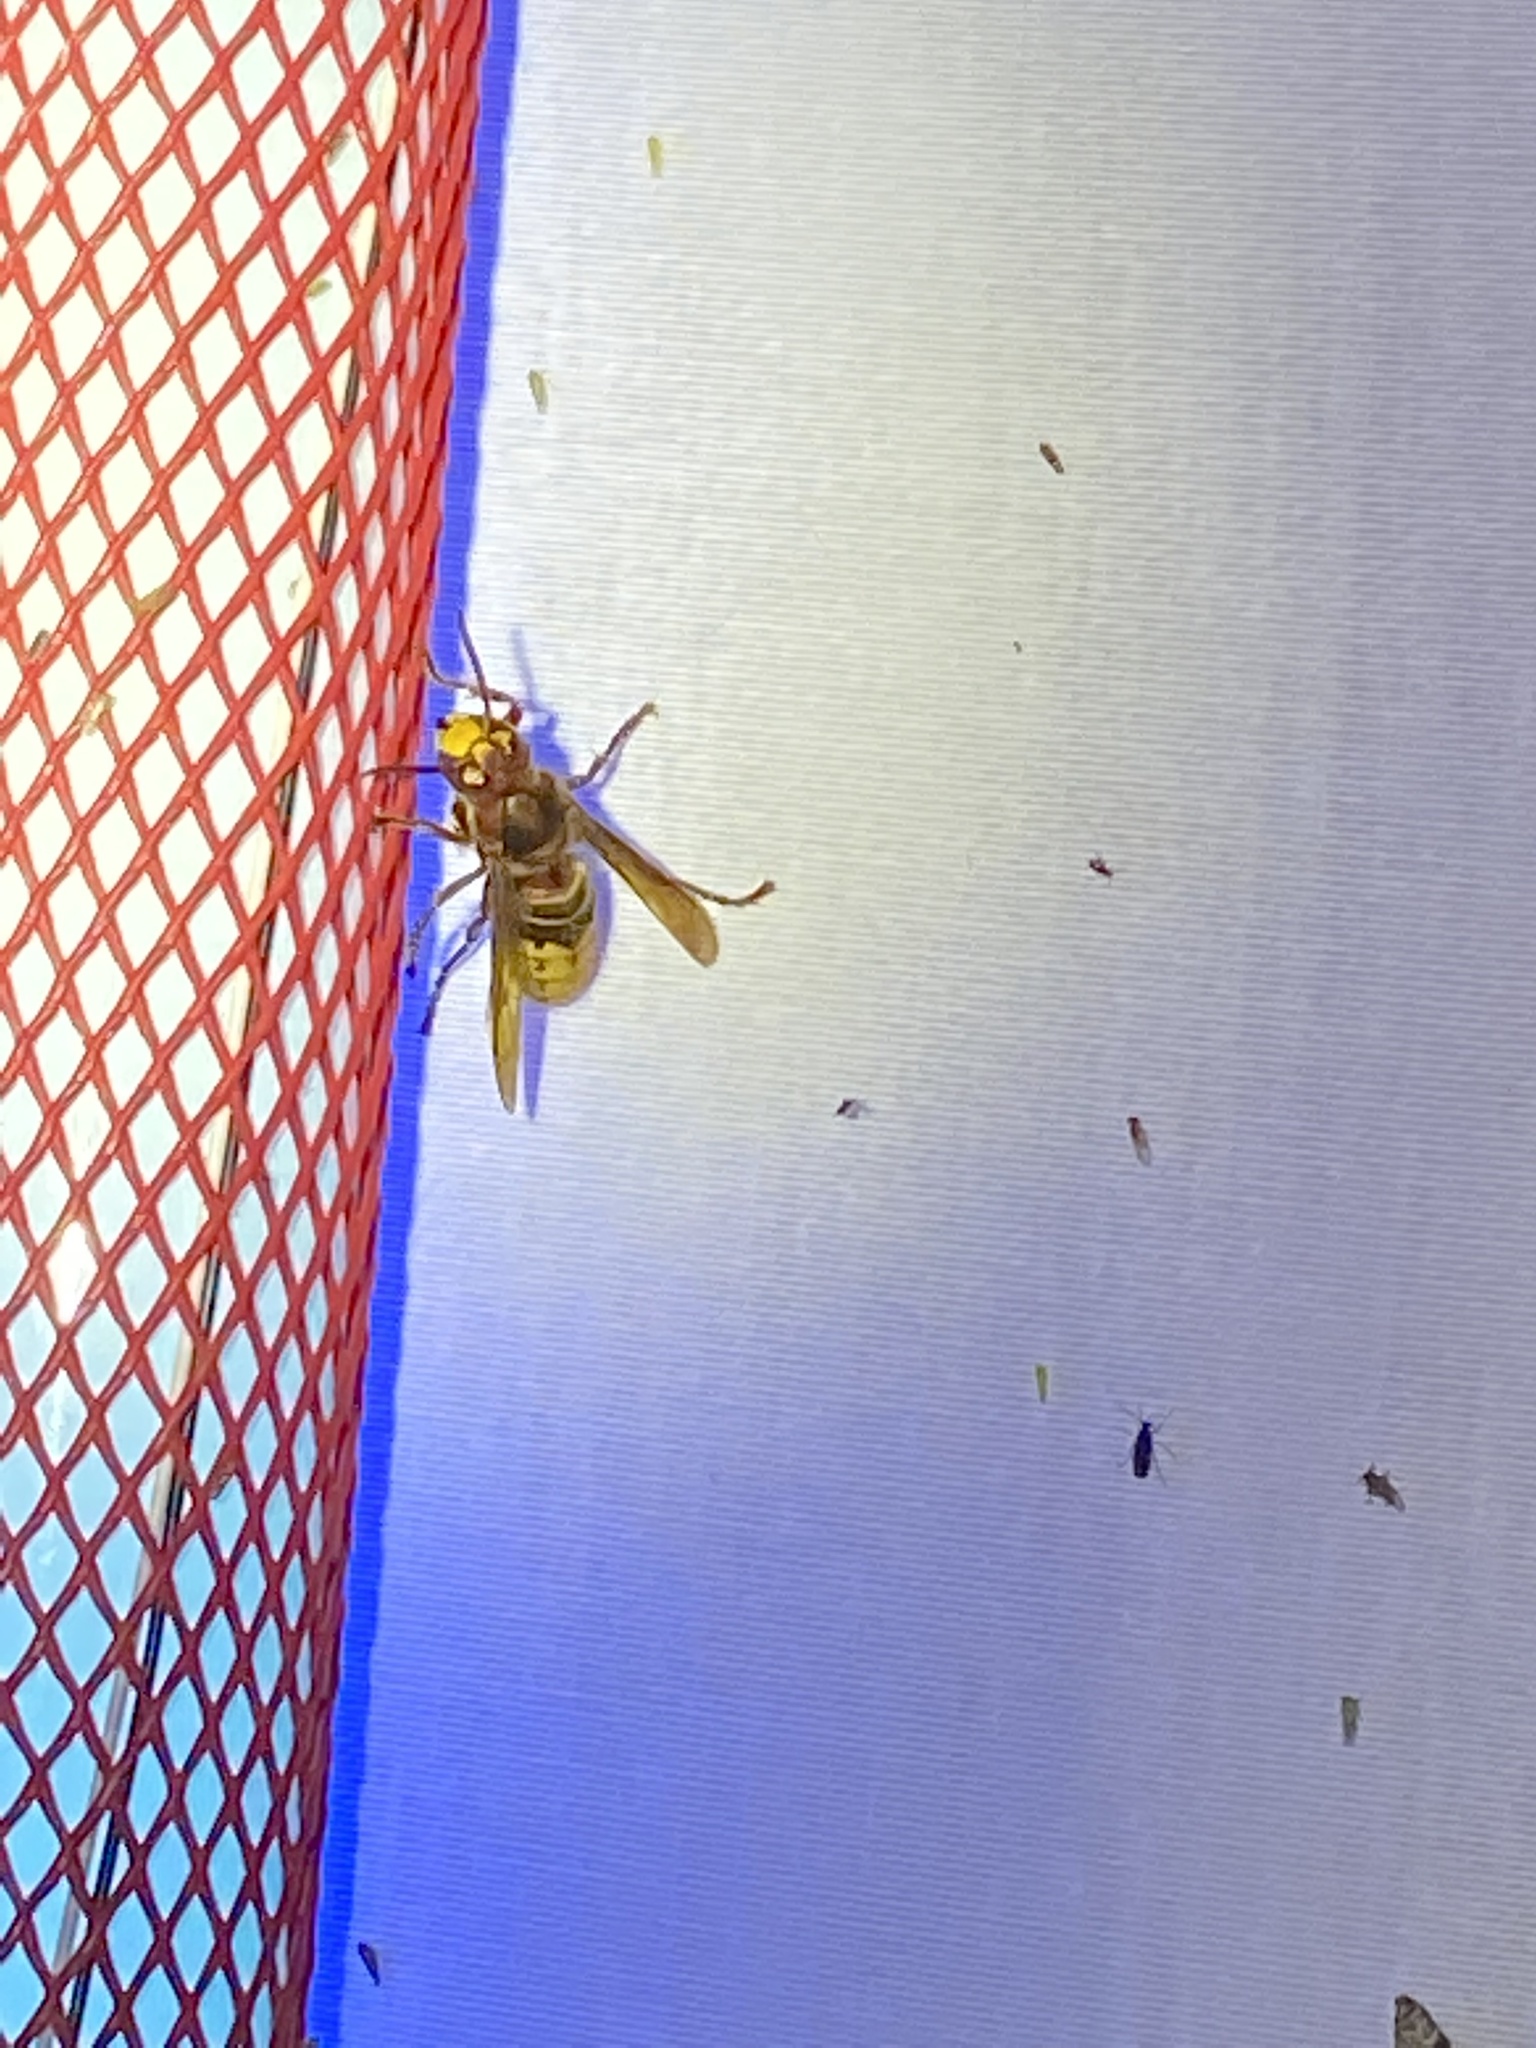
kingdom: Animalia
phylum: Arthropoda
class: Insecta
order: Hymenoptera
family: Vespidae
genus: Vespa
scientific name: Vespa crabro
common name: Hornet
